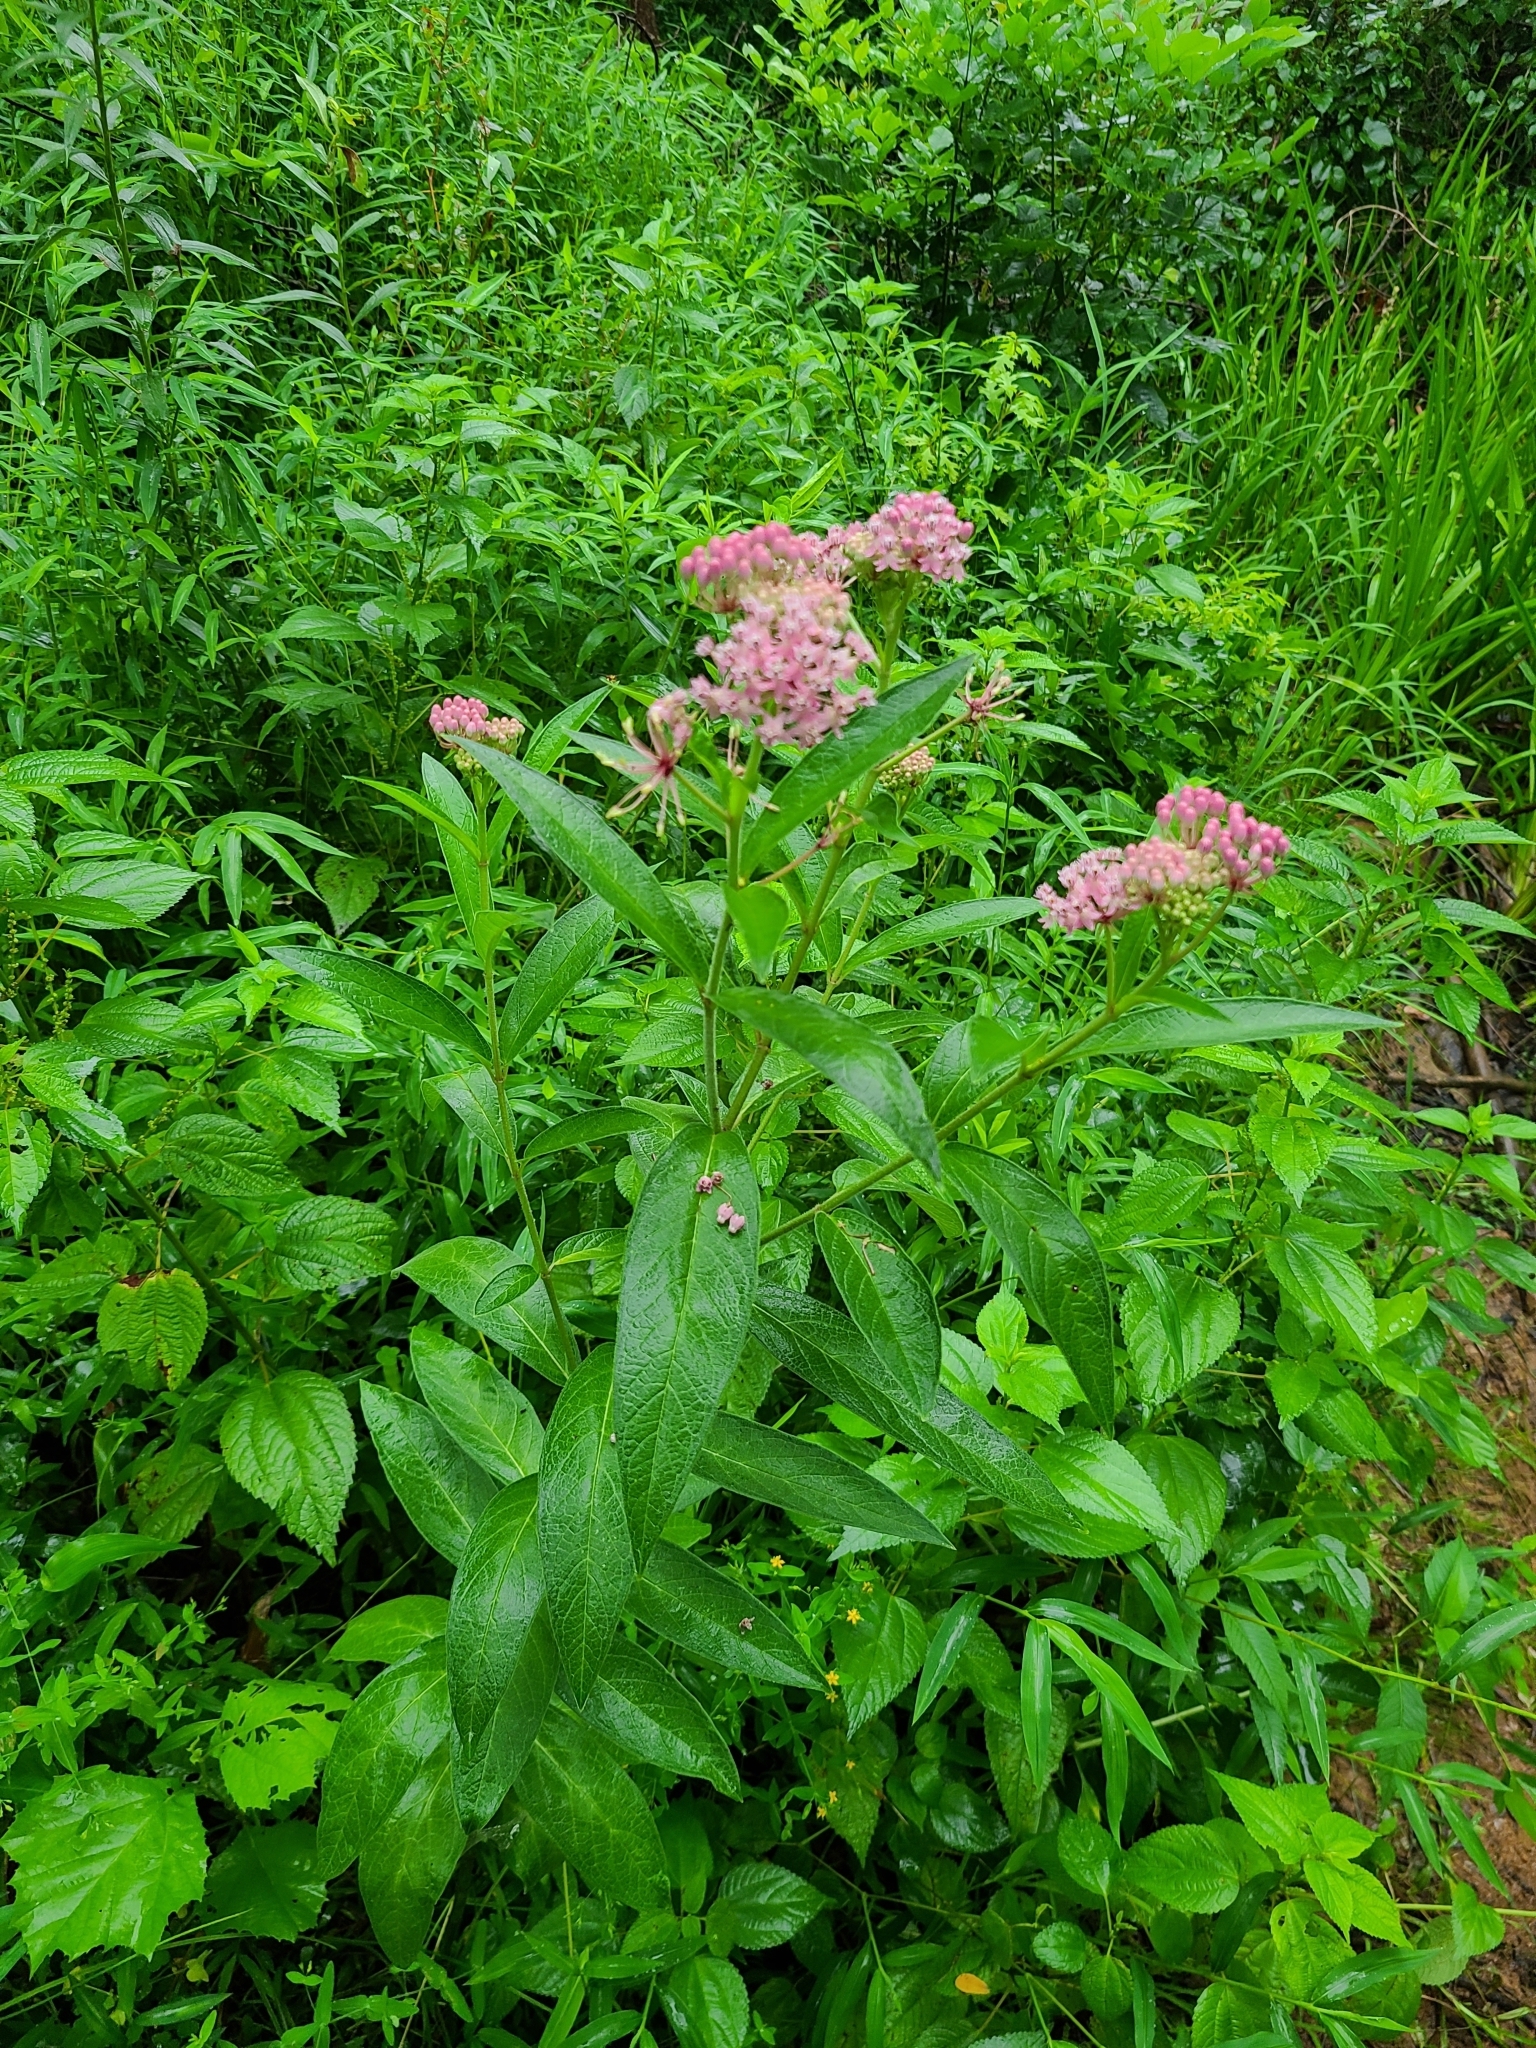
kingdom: Plantae
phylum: Tracheophyta
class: Magnoliopsida
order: Gentianales
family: Apocynaceae
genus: Asclepias
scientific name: Asclepias incarnata
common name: Swamp milkweed
